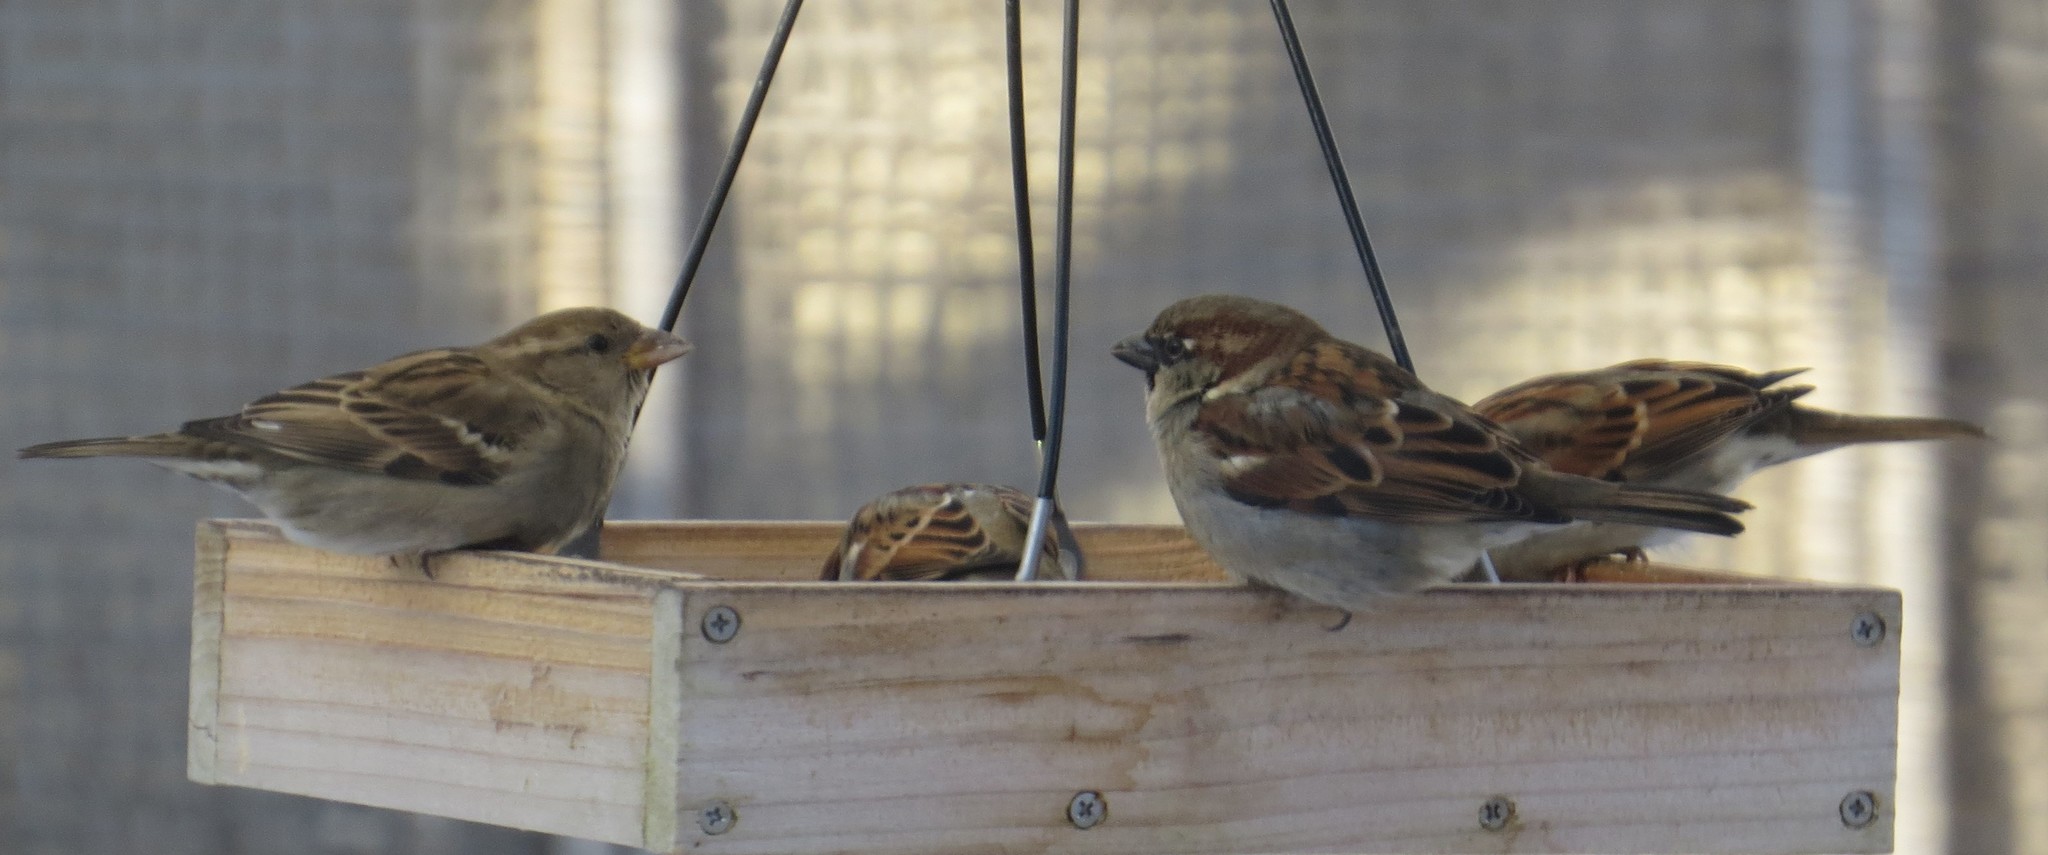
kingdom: Animalia
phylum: Chordata
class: Aves
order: Passeriformes
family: Passeridae
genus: Passer
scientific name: Passer domesticus
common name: House sparrow
